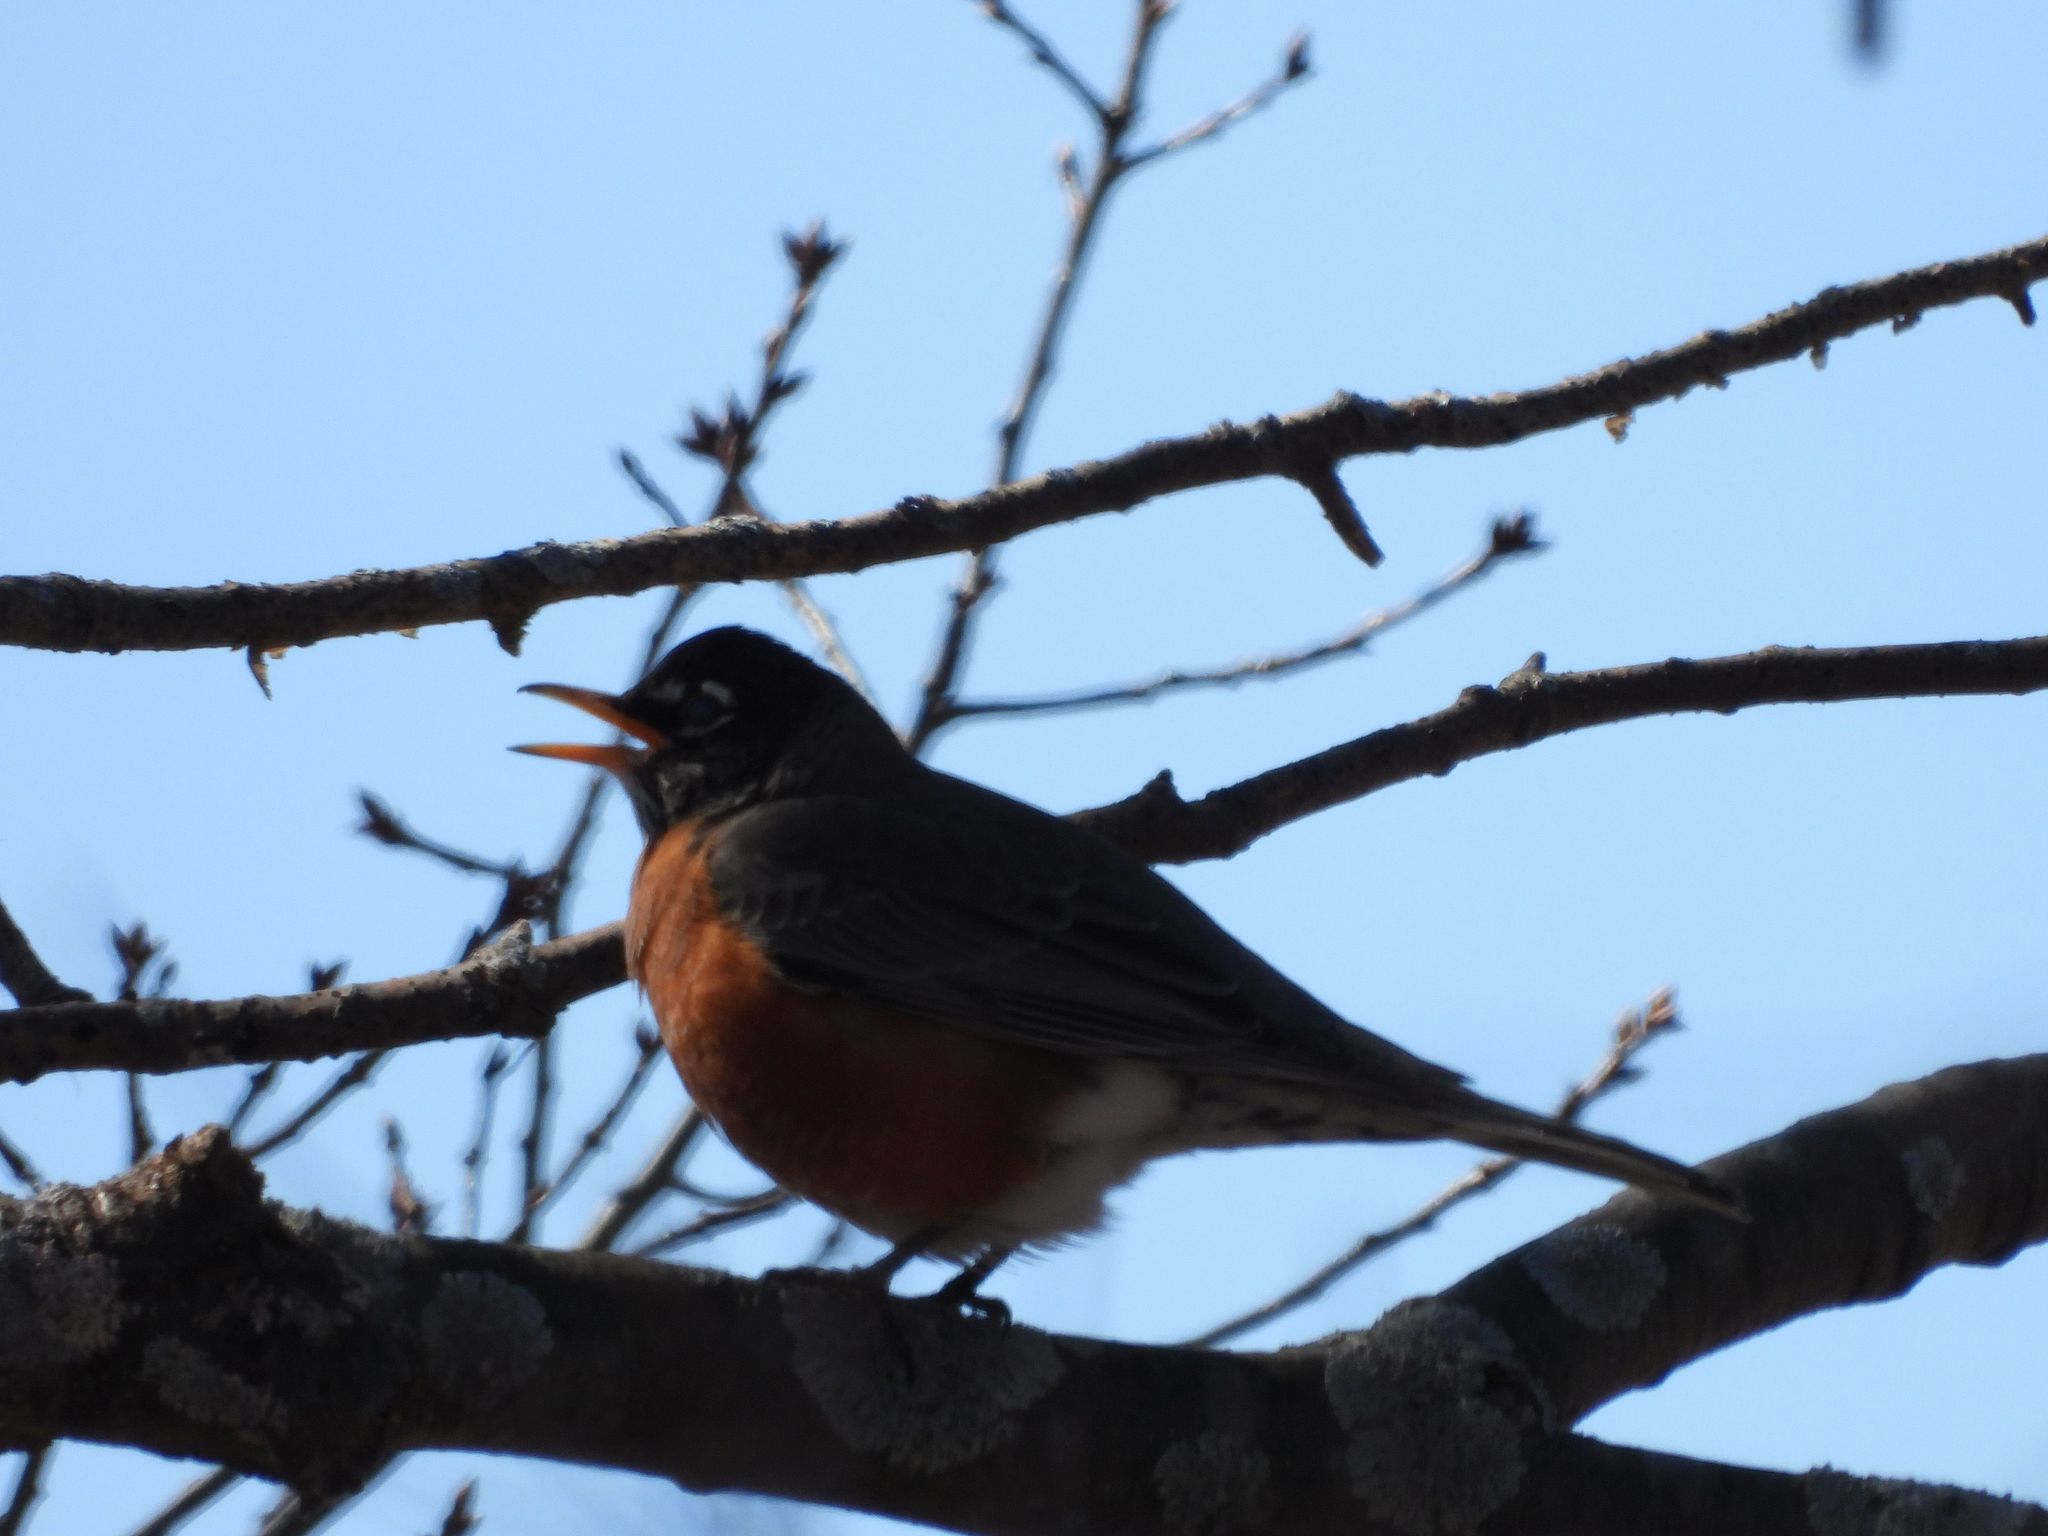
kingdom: Animalia
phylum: Chordata
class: Aves
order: Passeriformes
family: Turdidae
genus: Turdus
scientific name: Turdus migratorius
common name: American robin
